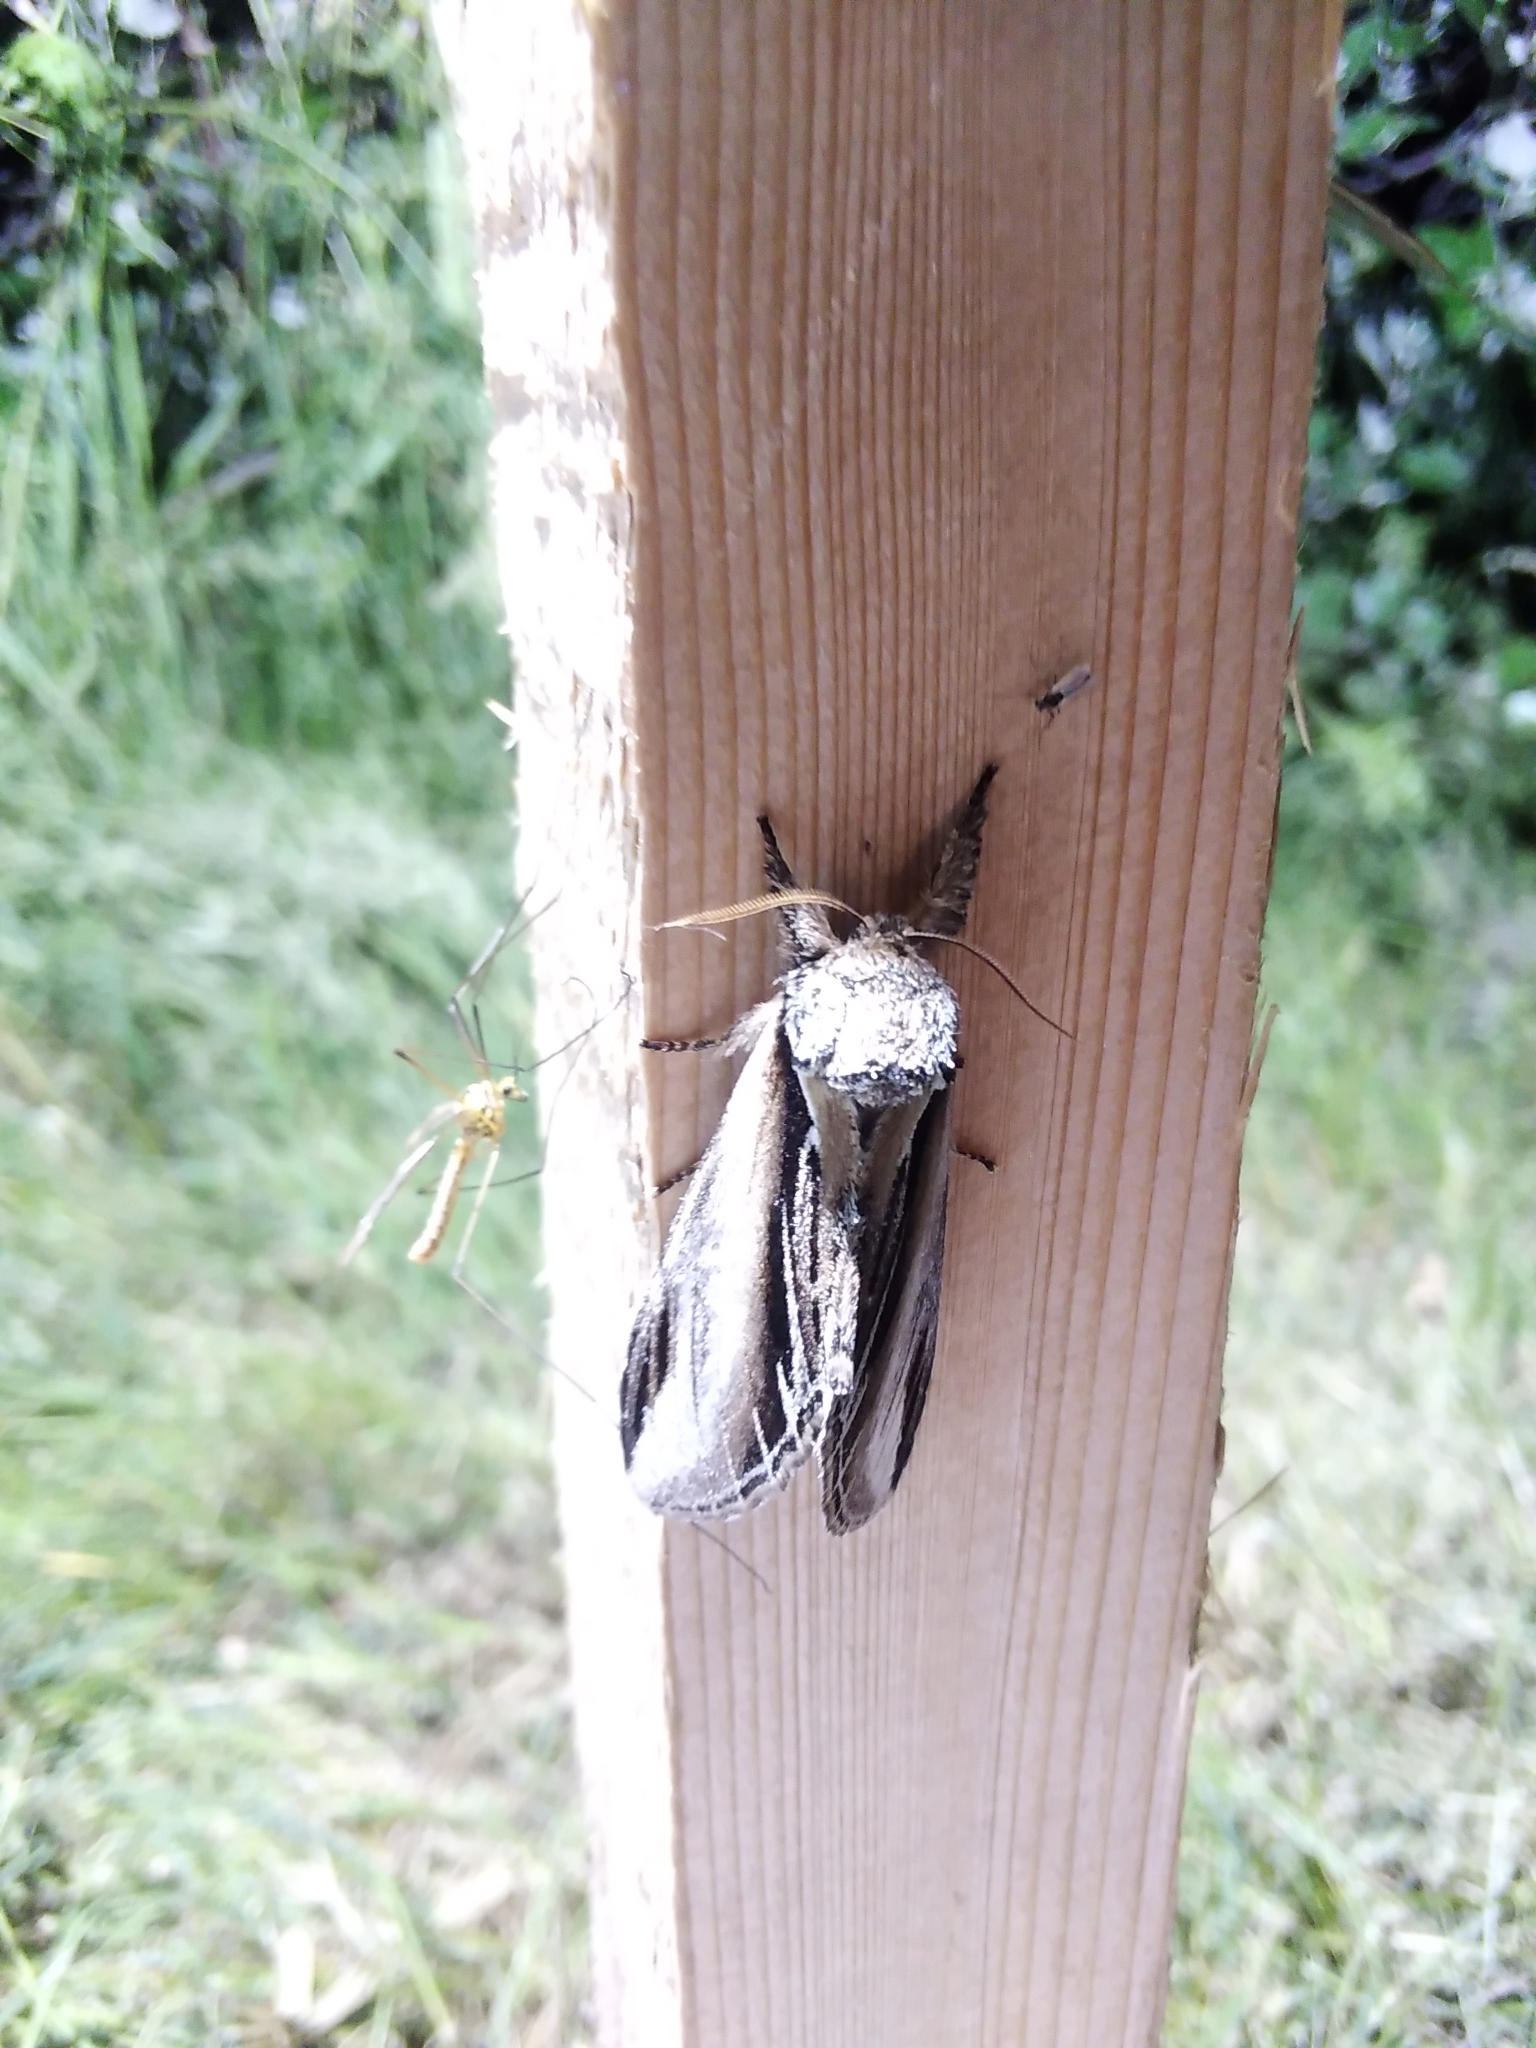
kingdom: Animalia
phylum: Arthropoda
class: Insecta
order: Lepidoptera
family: Notodontidae
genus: Pheosia
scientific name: Pheosia tremula
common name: Swallow prominent
